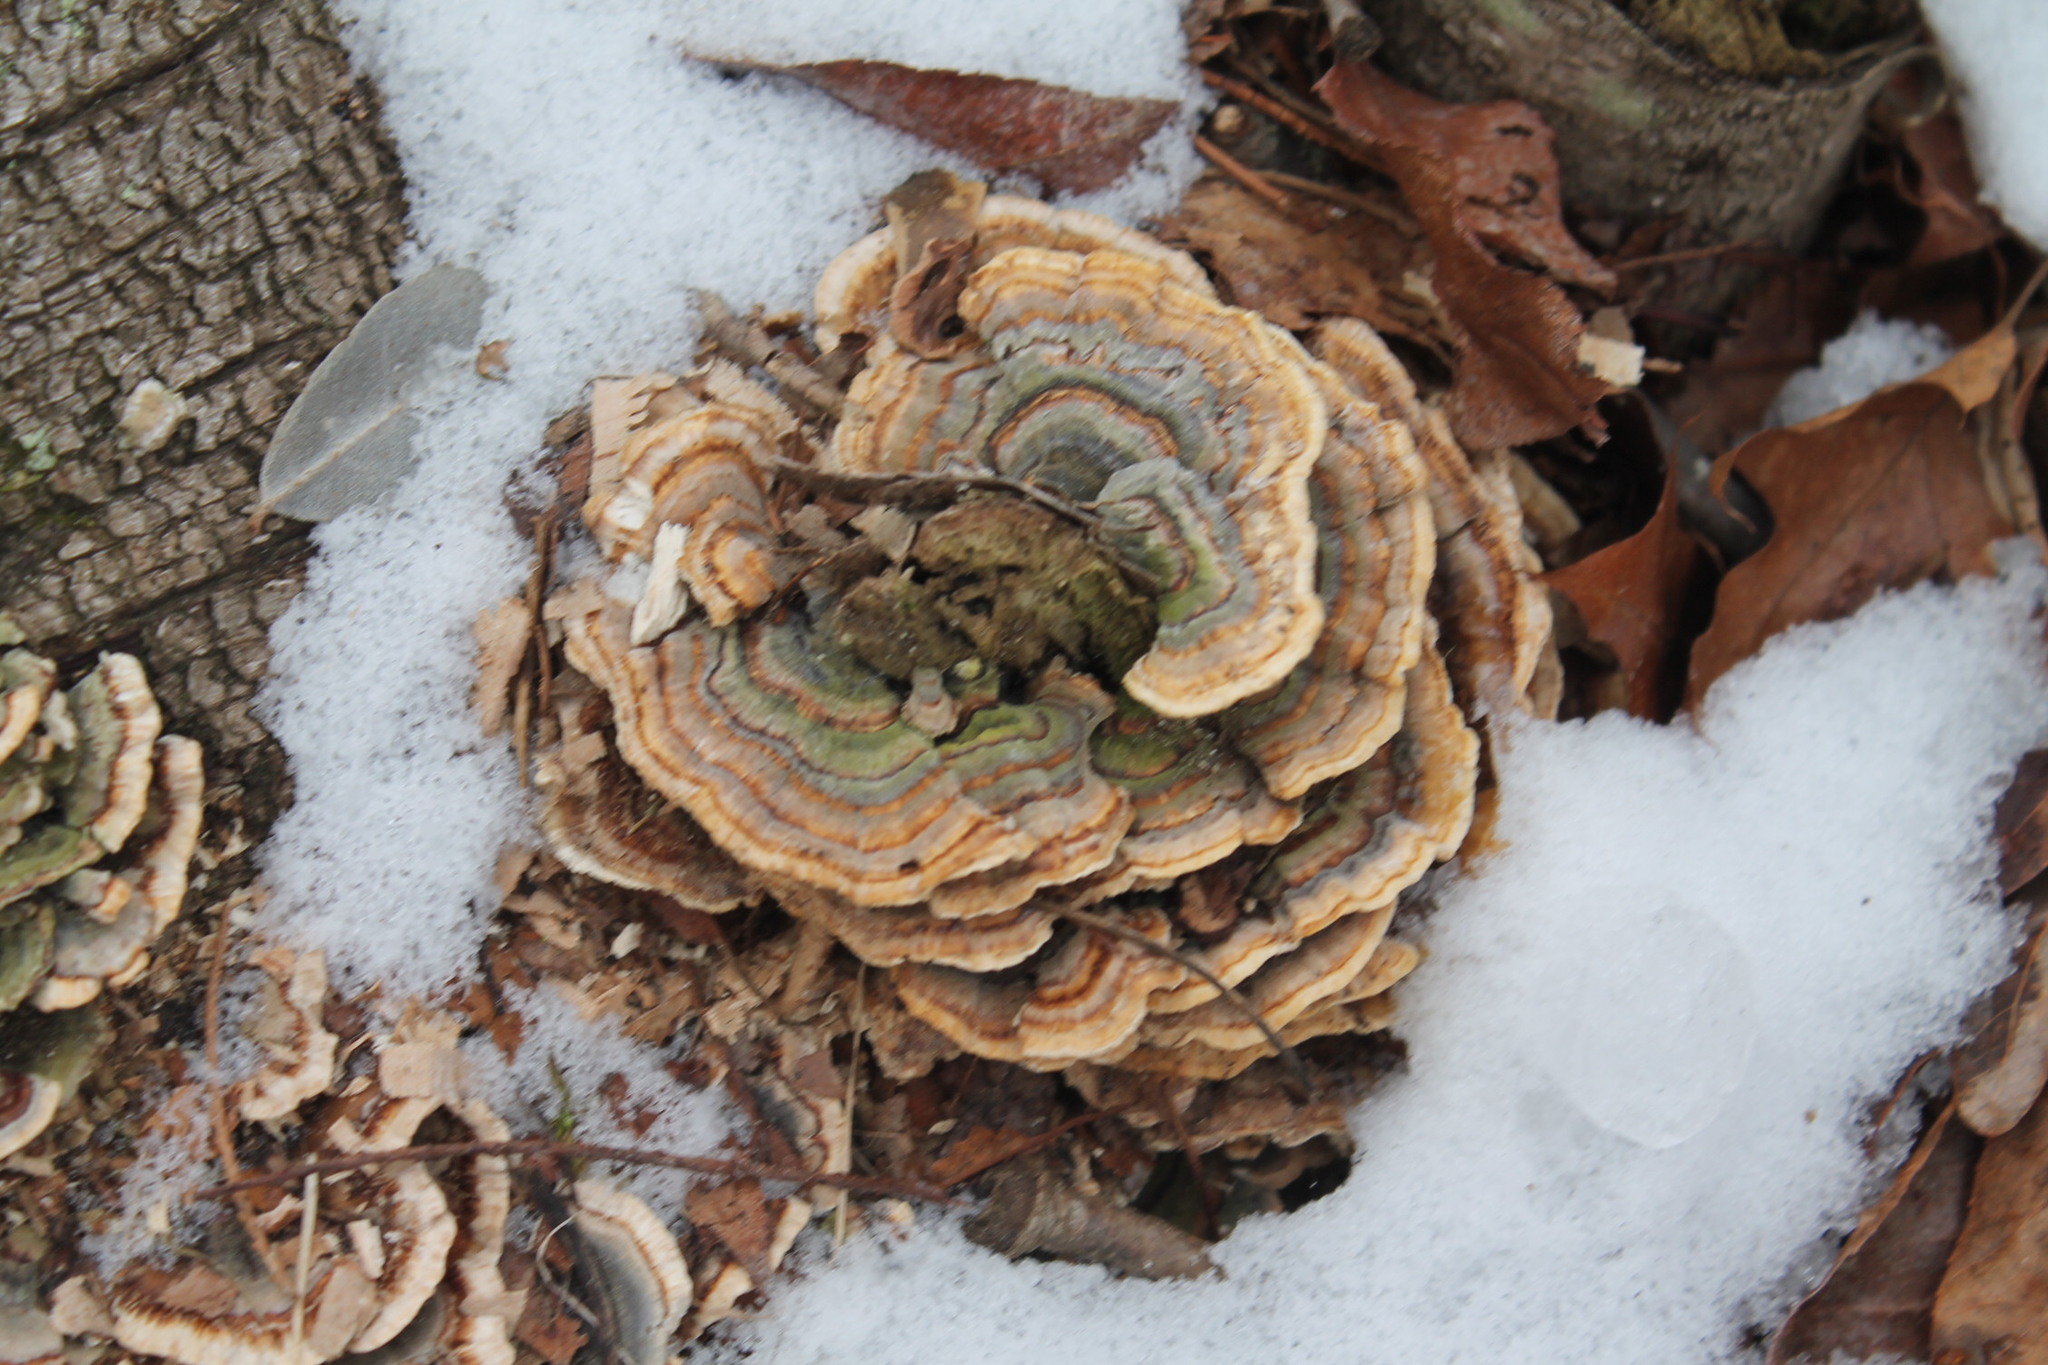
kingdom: Fungi
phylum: Basidiomycota
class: Agaricomycetes
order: Polyporales
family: Polyporaceae
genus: Trametes
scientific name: Trametes versicolor
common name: Turkeytail
